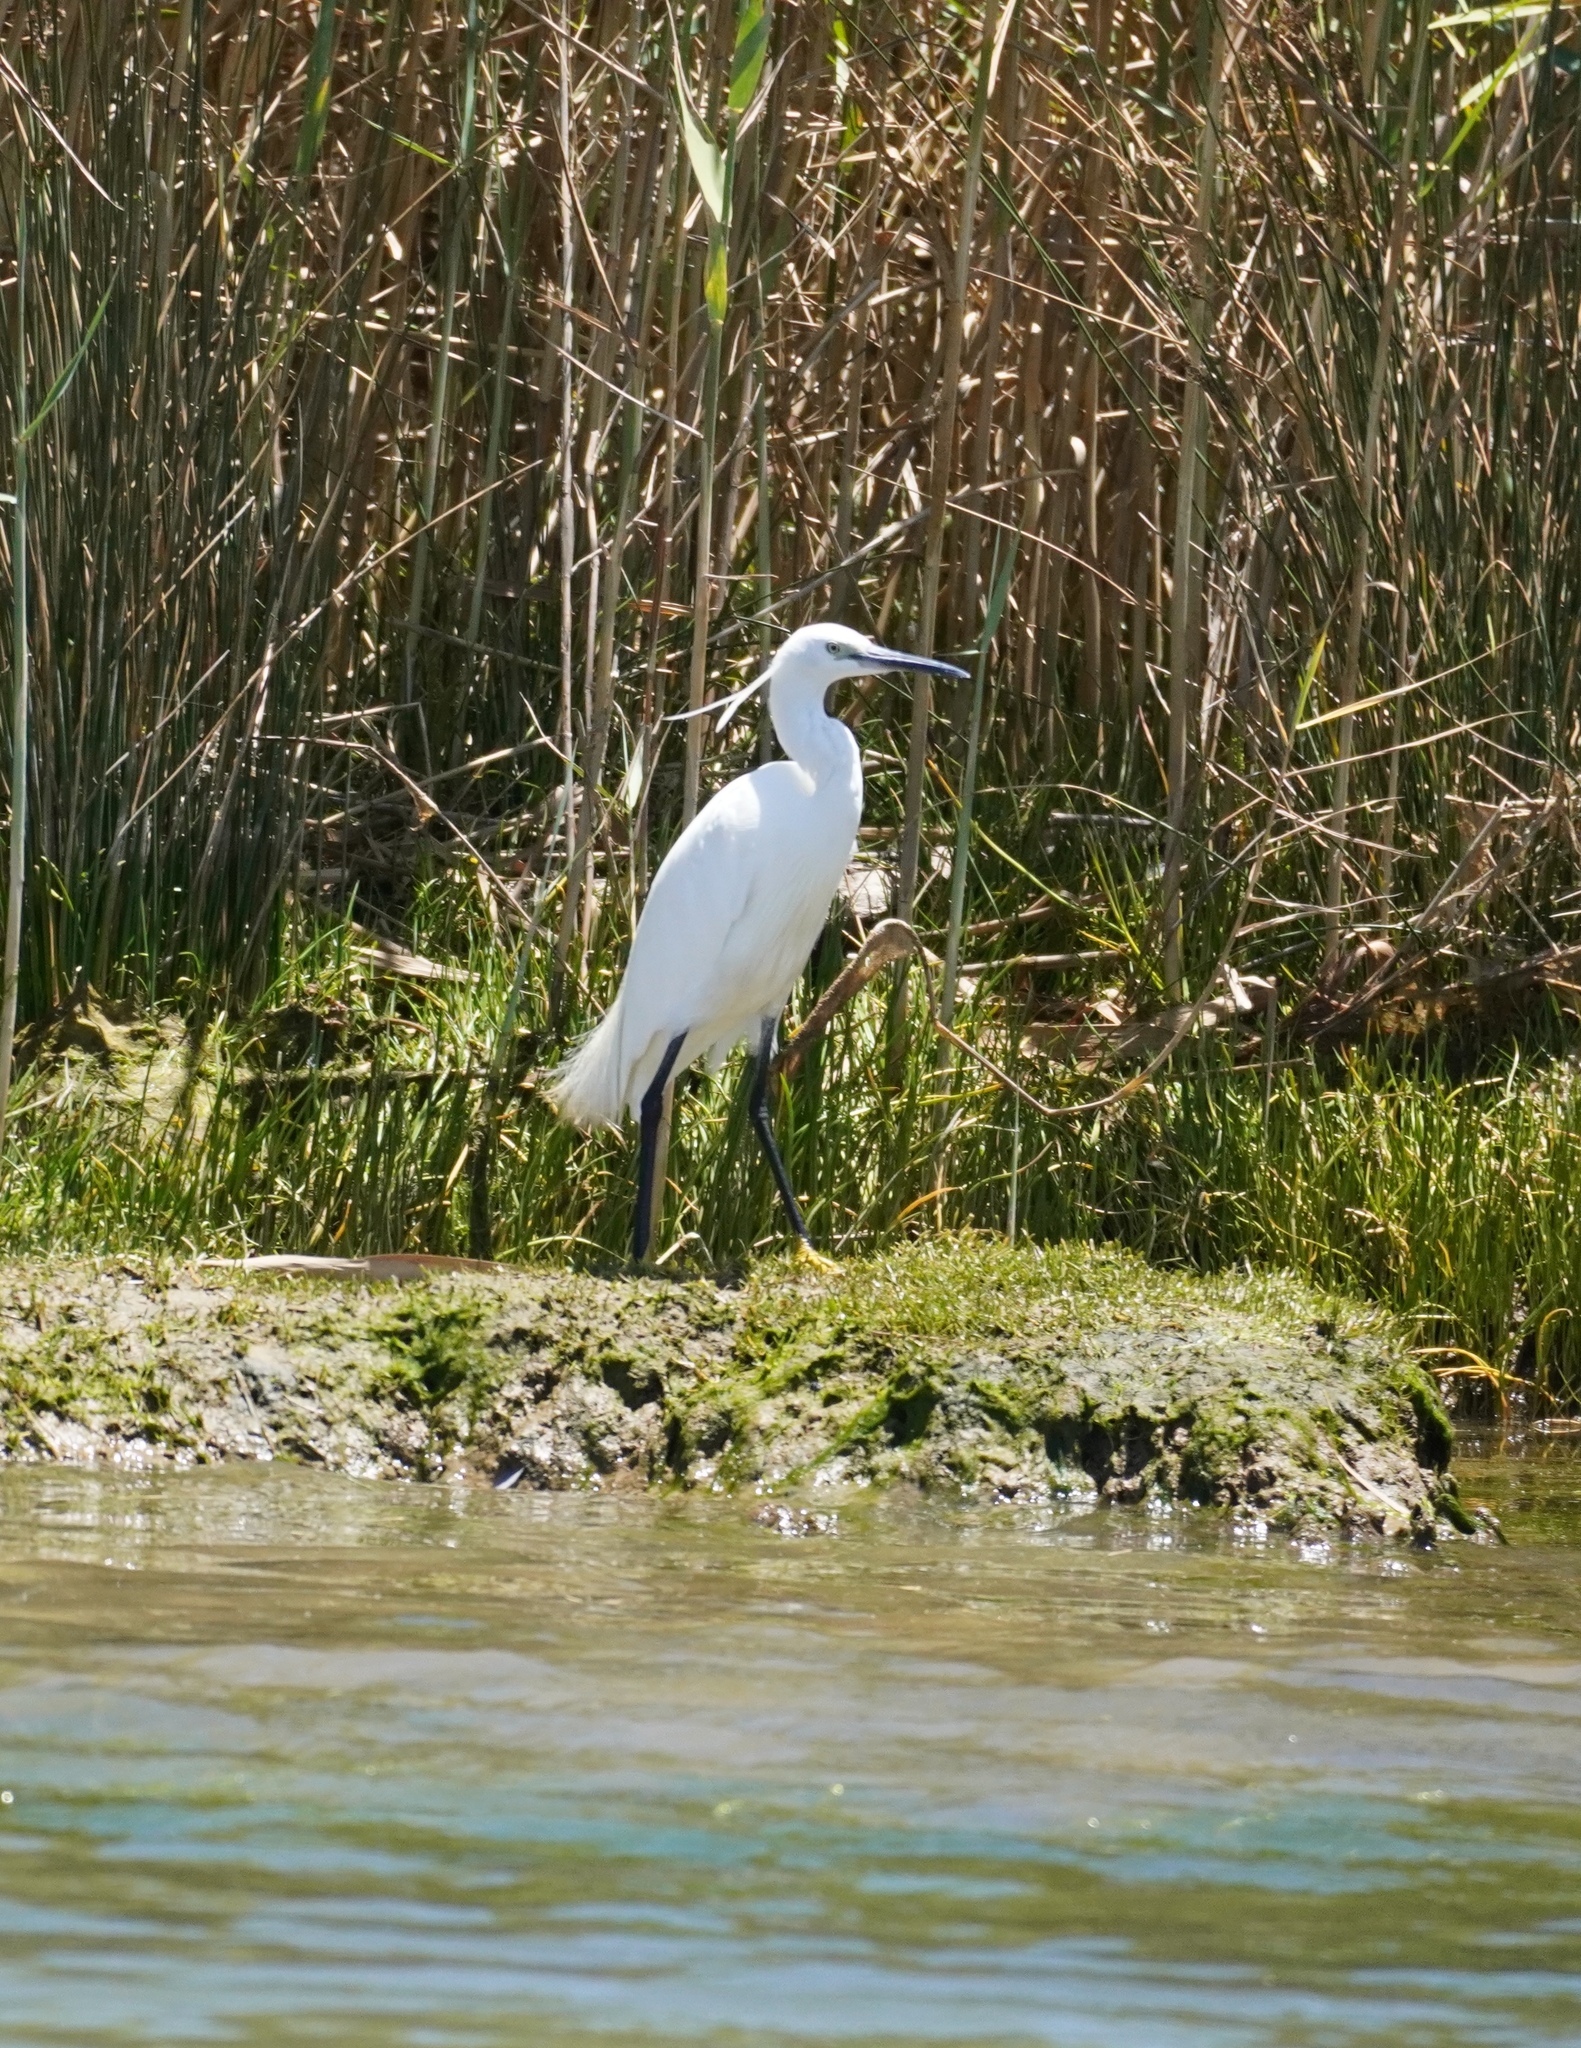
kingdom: Animalia
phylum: Chordata
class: Aves
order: Pelecaniformes
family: Ardeidae
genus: Egretta
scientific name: Egretta garzetta
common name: Little egret
